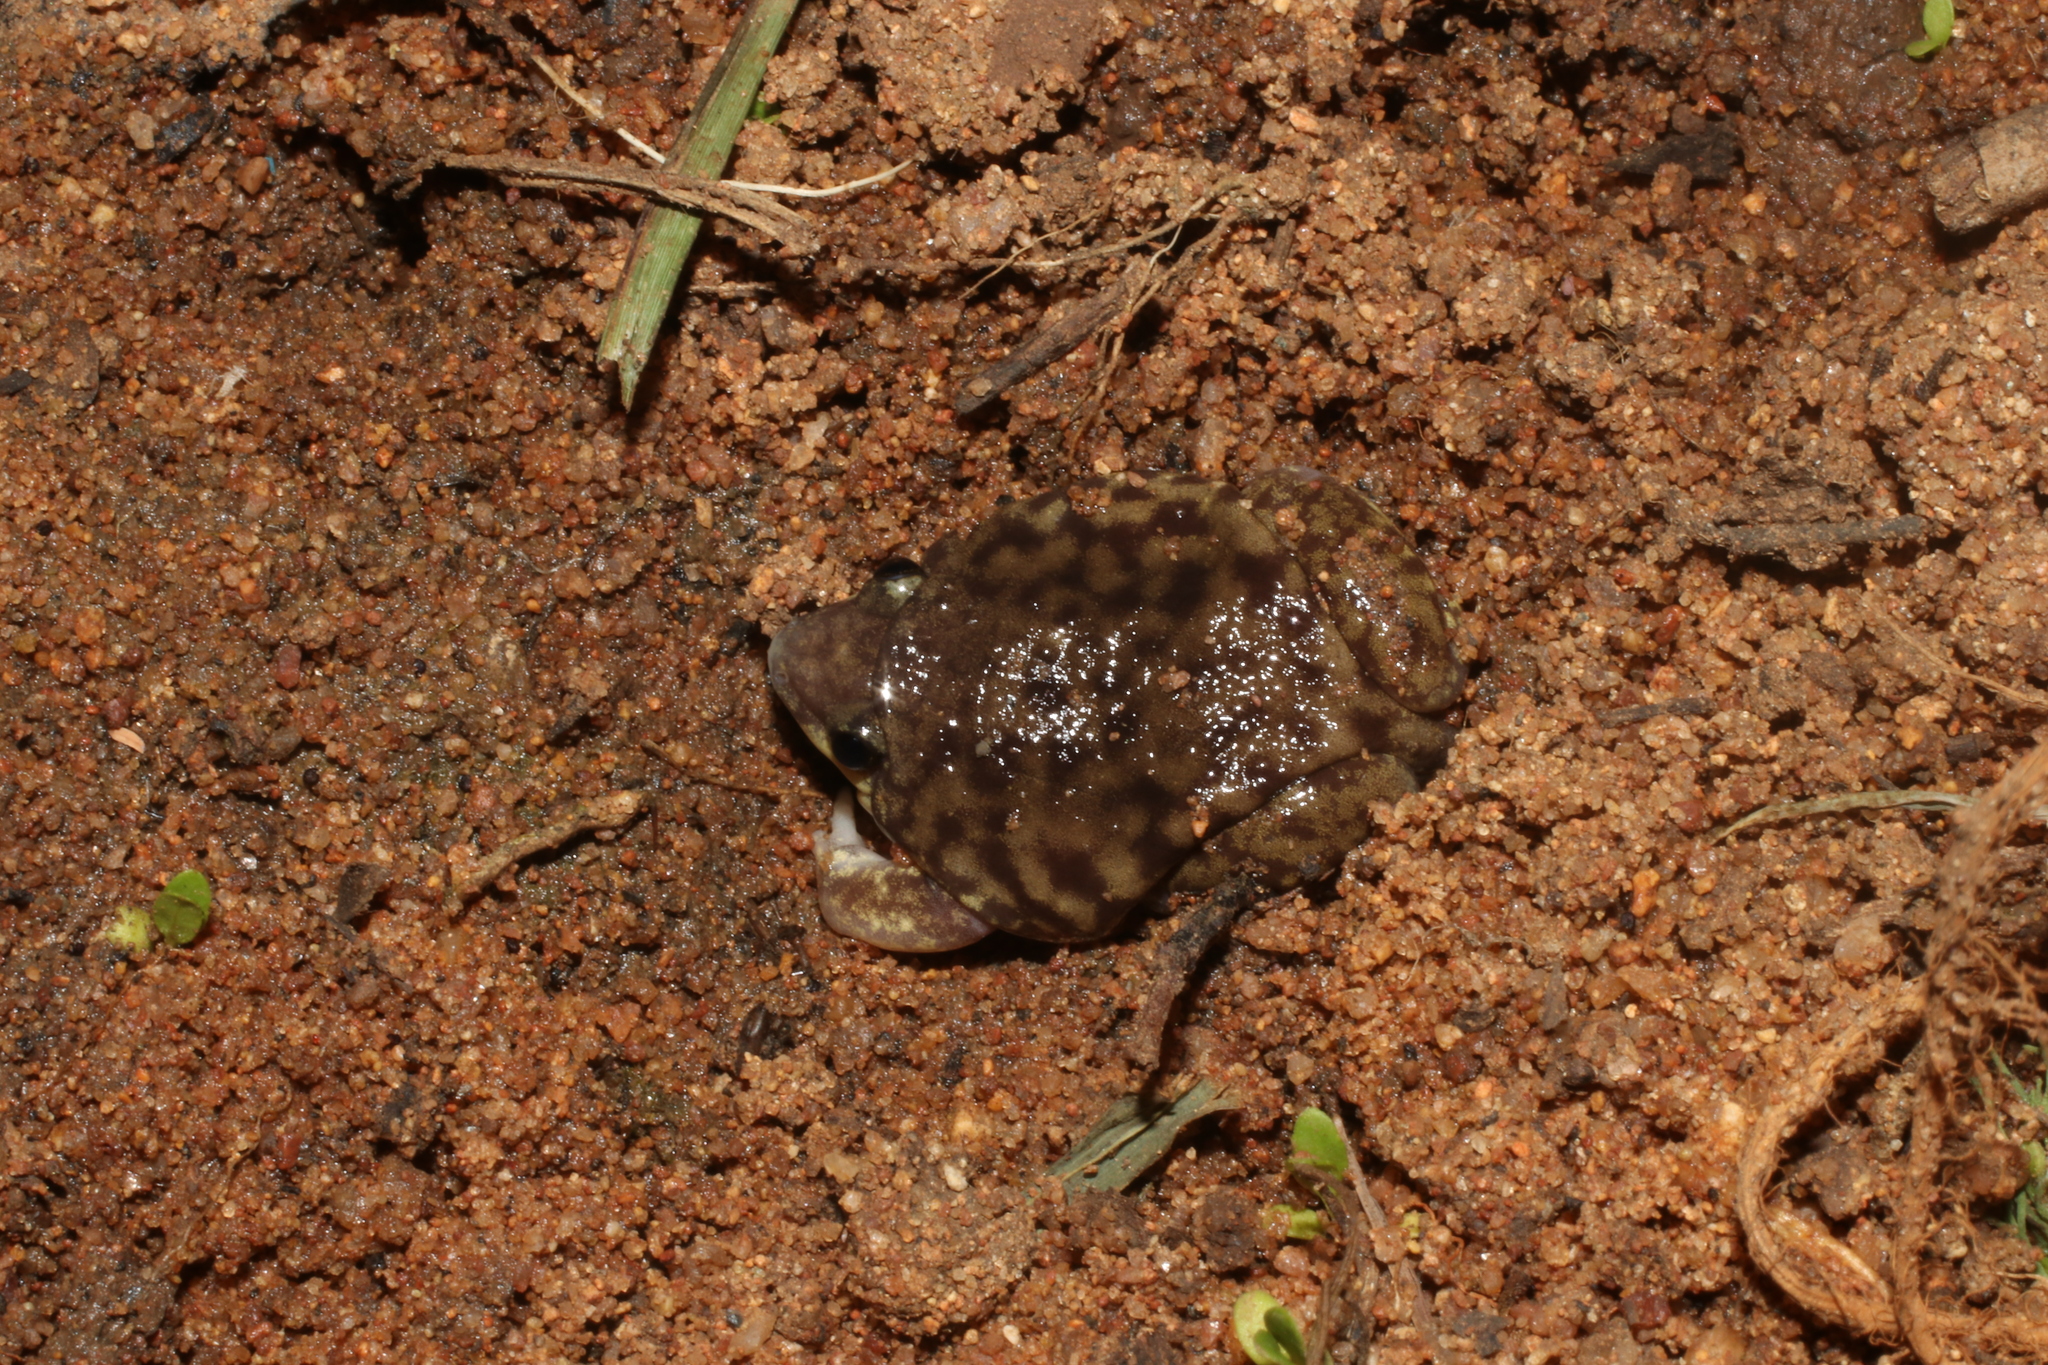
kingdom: Animalia
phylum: Chordata
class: Amphibia
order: Anura
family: Hemisotidae
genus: Hemisus
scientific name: Hemisus marmoratus
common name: Mottled shovel-nosed frog
